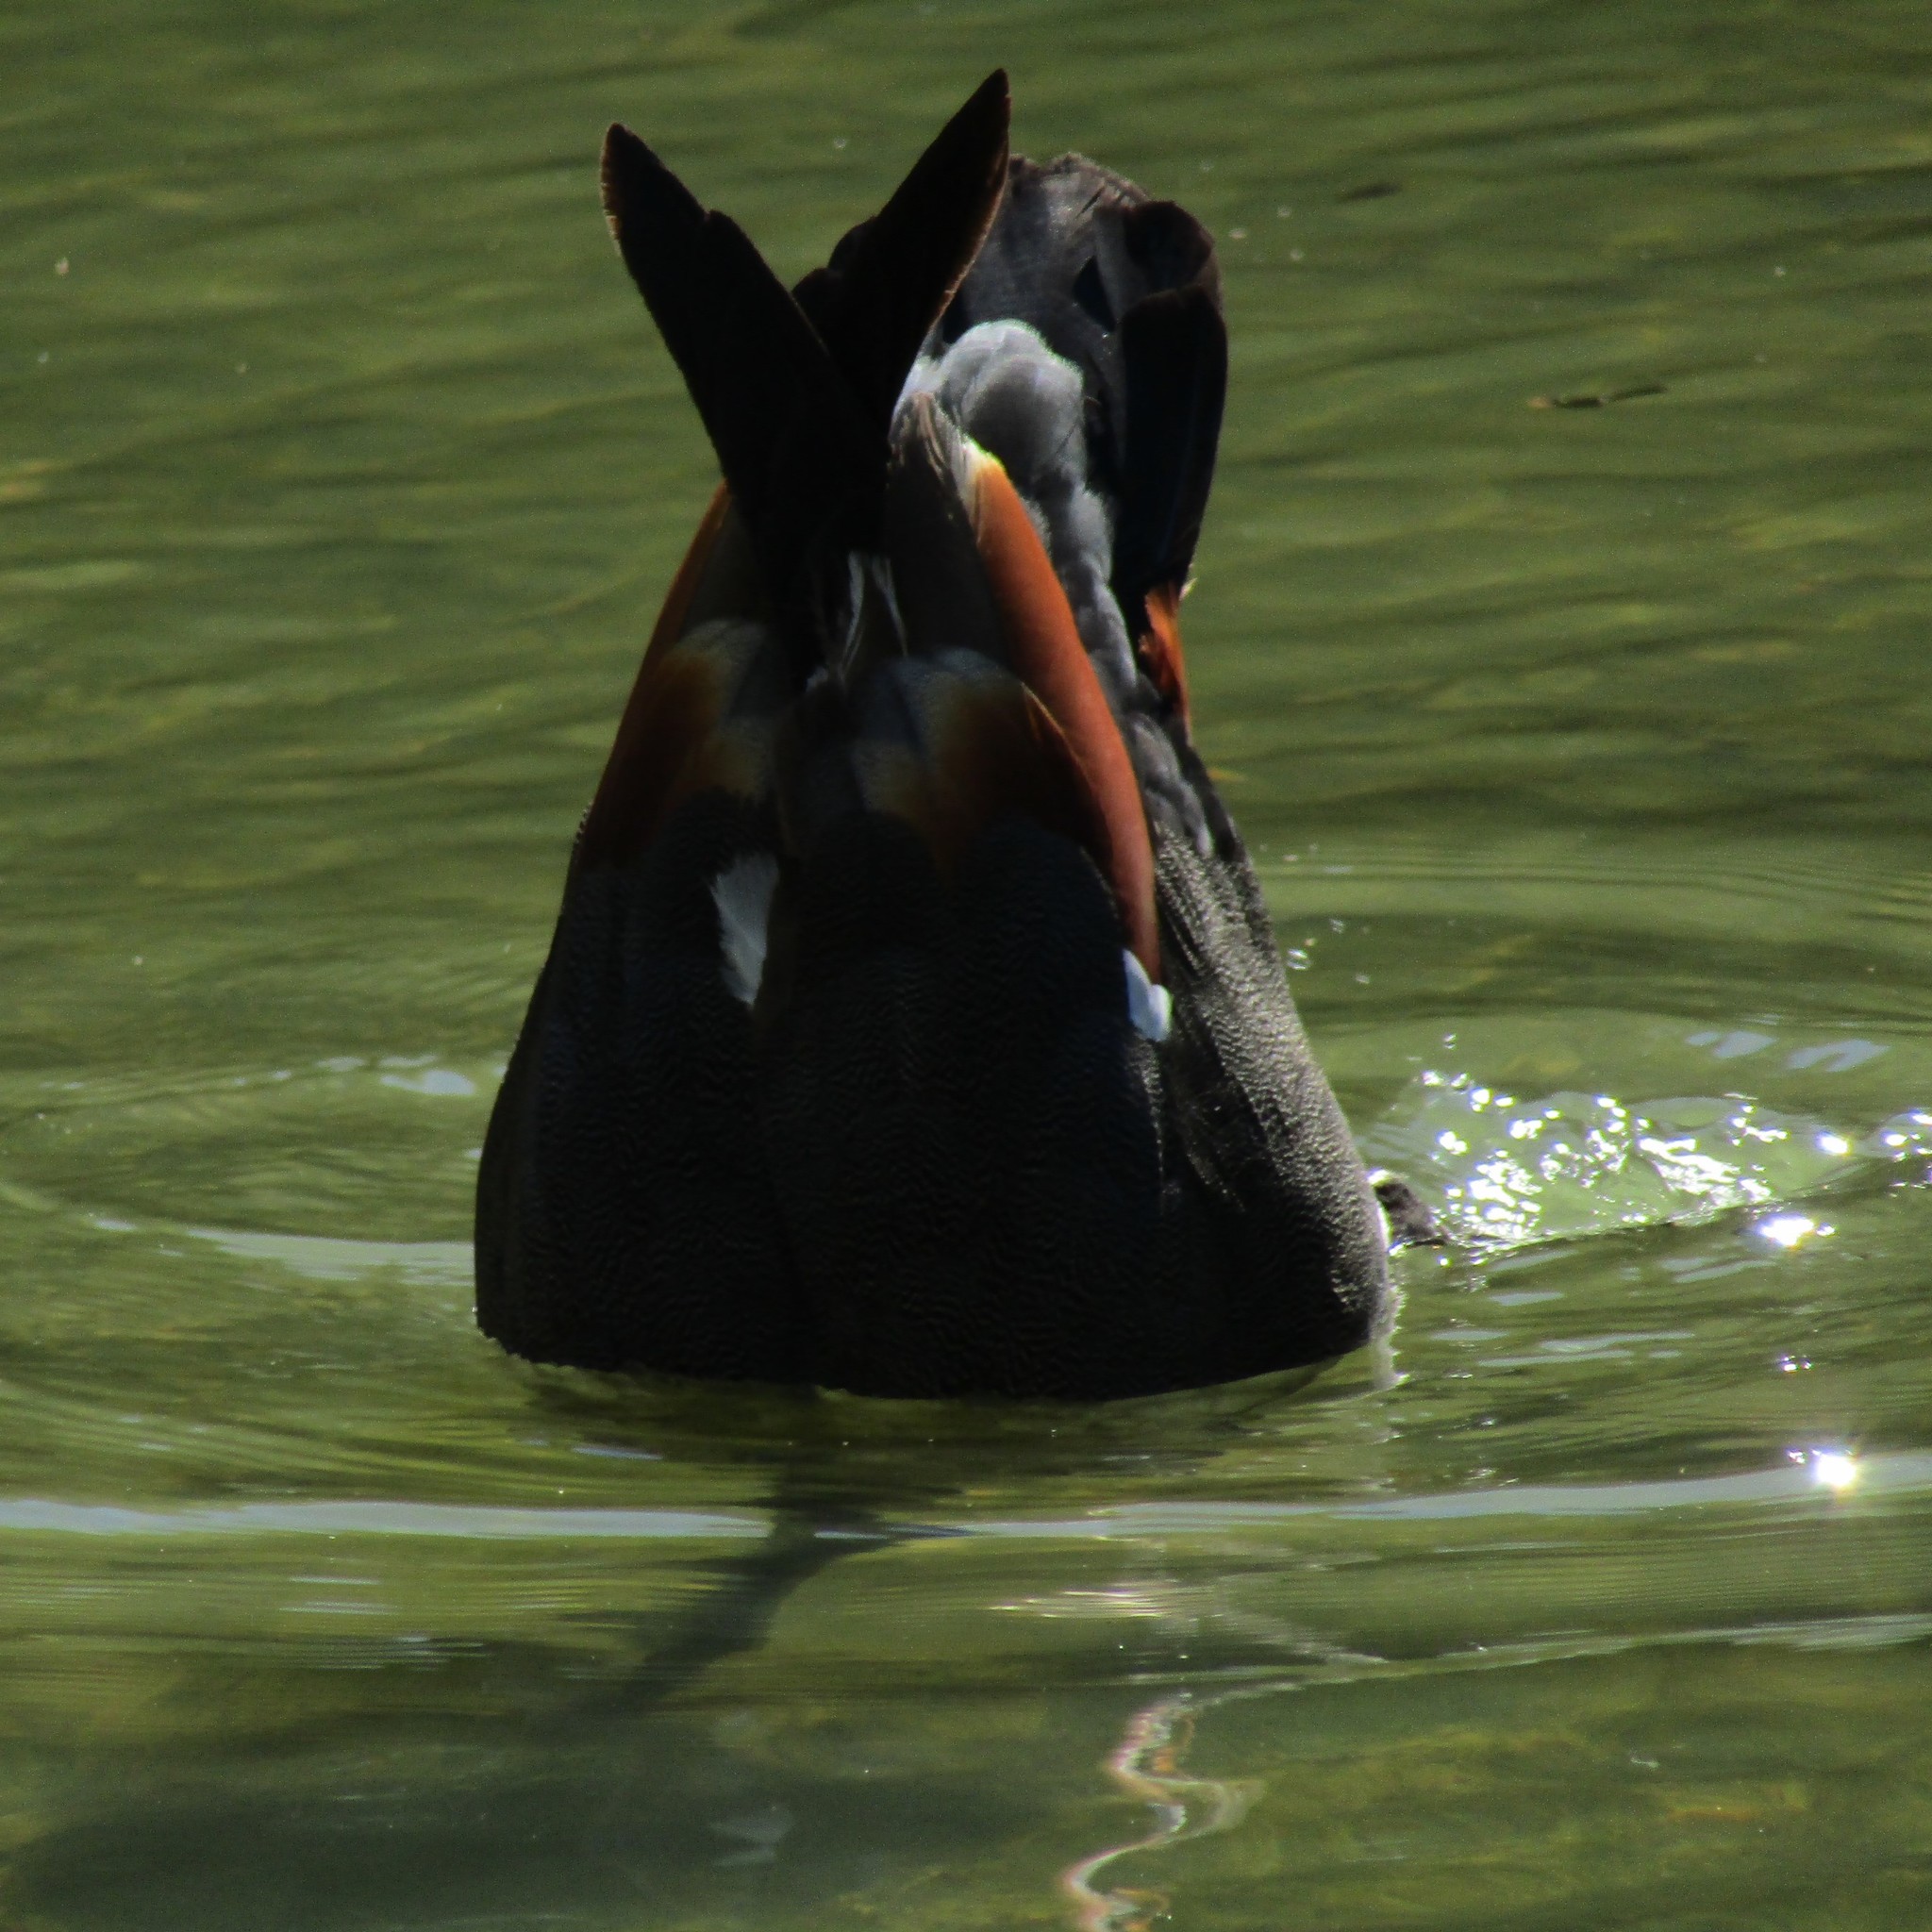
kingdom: Animalia
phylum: Chordata
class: Aves
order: Anseriformes
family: Anatidae
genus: Tadorna
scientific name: Tadorna variegata
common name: Paradise shelduck
